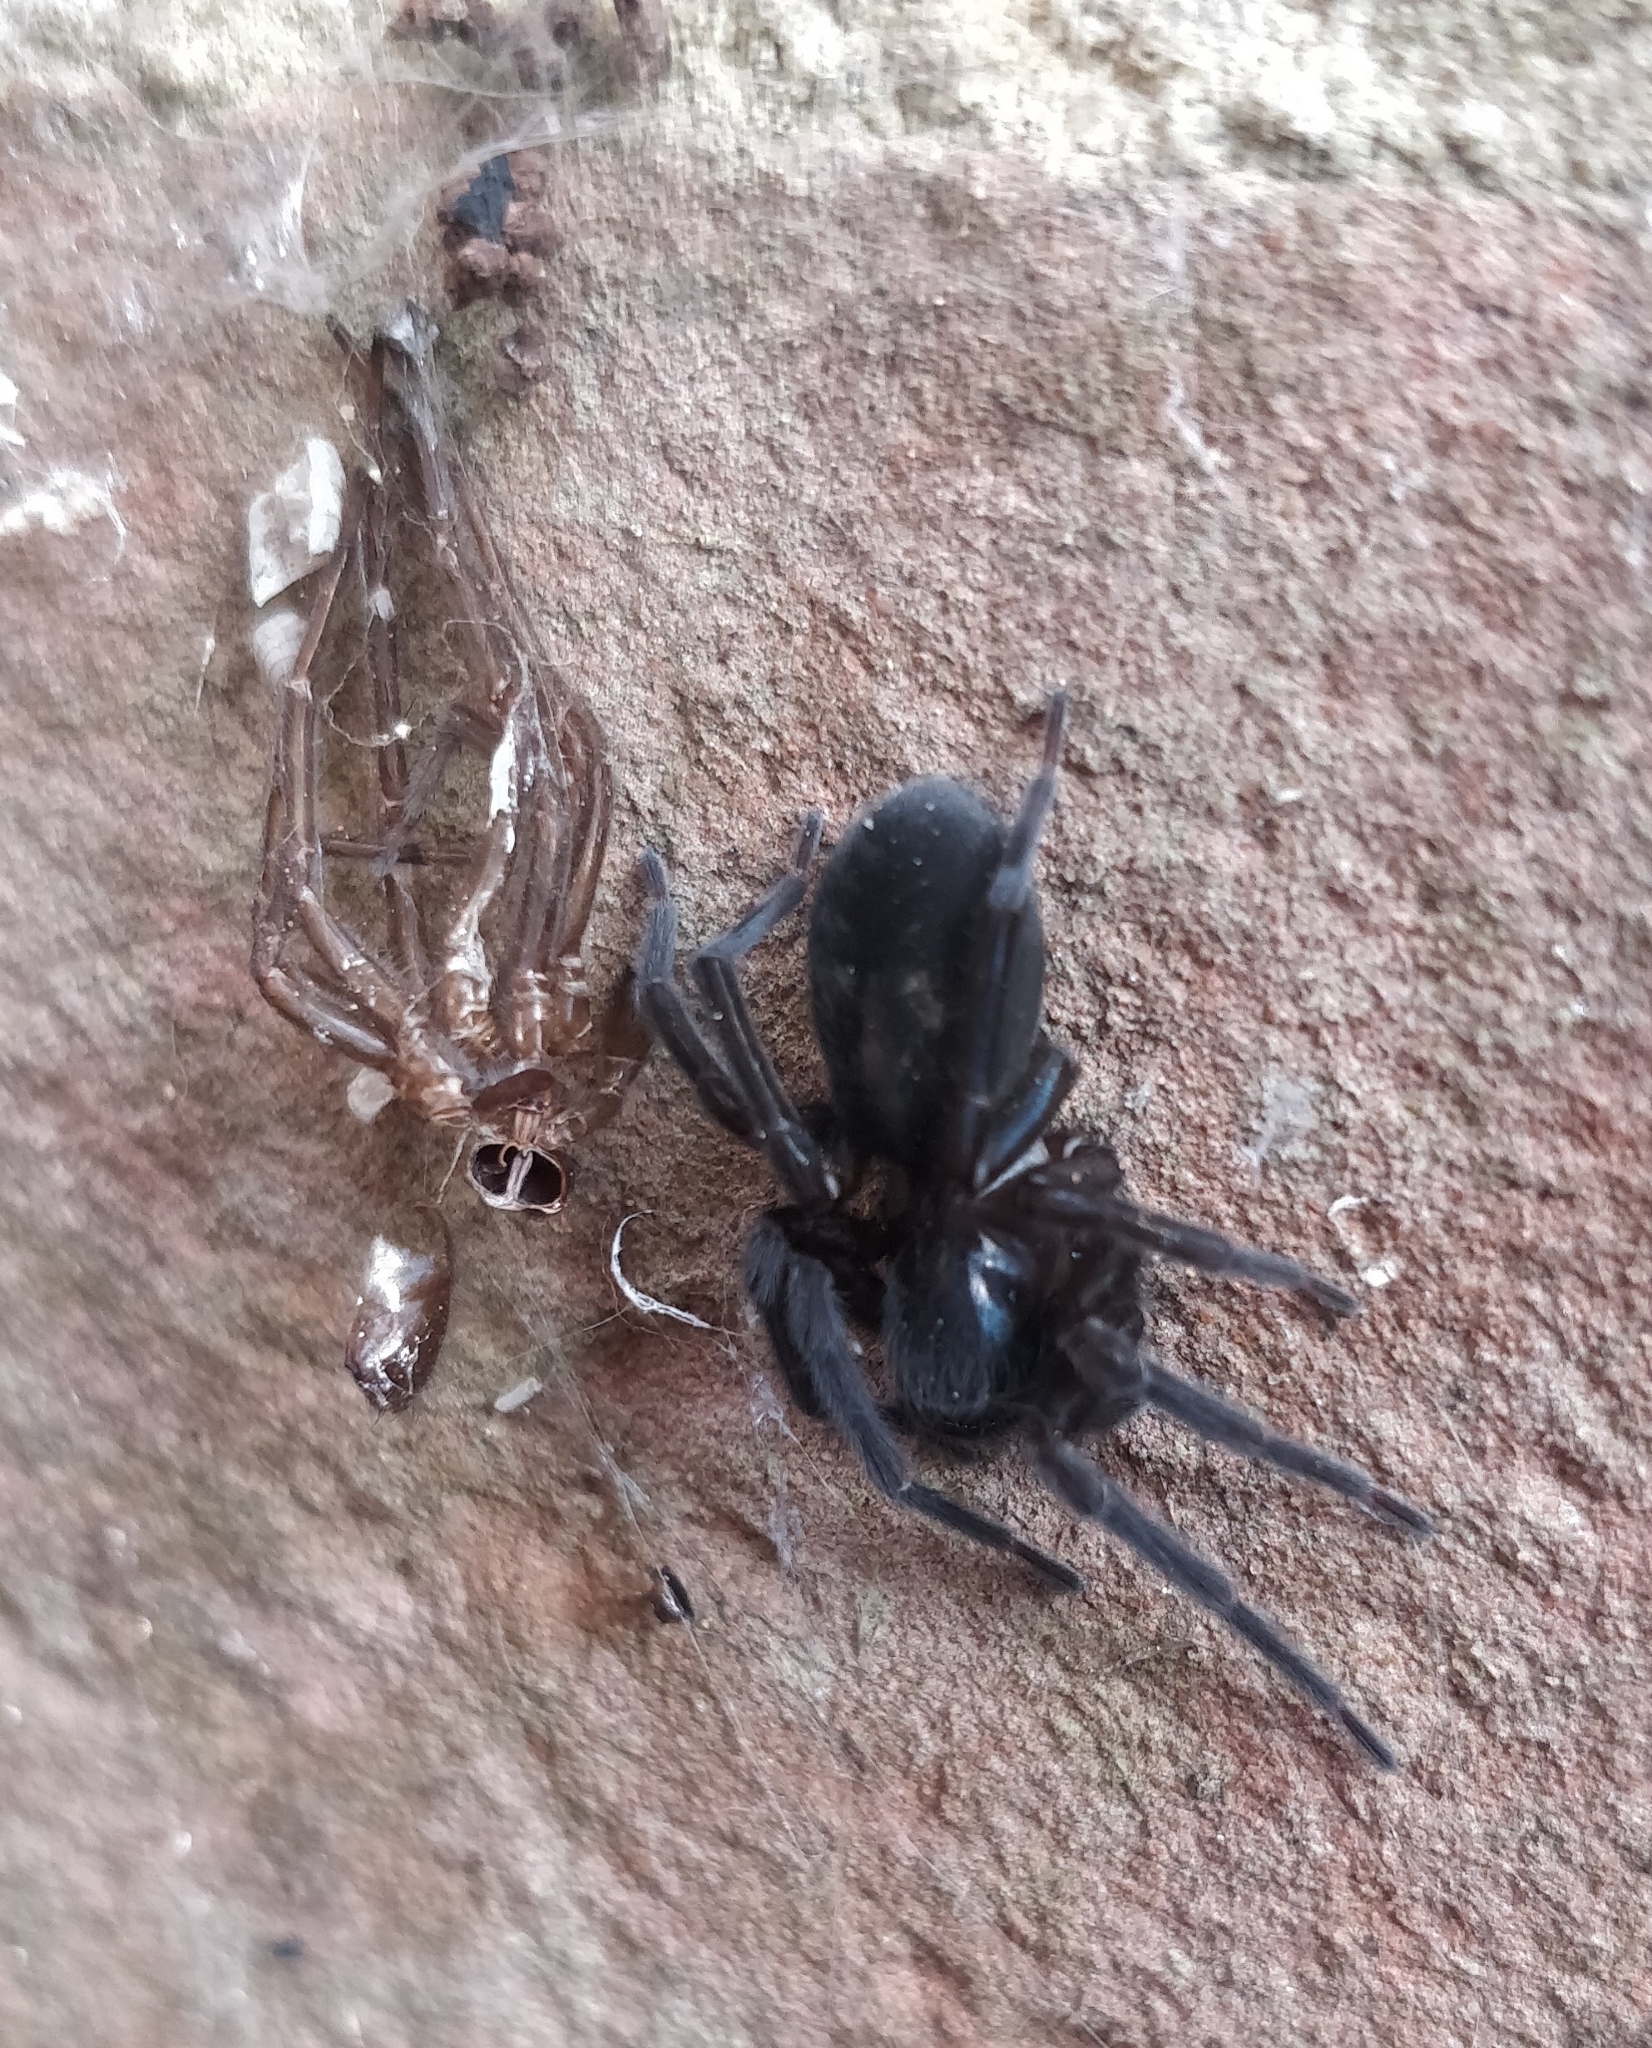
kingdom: Animalia
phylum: Arthropoda
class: Arachnida
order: Araneae
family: Amaurobiidae
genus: Amaurobius
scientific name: Amaurobius ferox
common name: Black laceweaver
